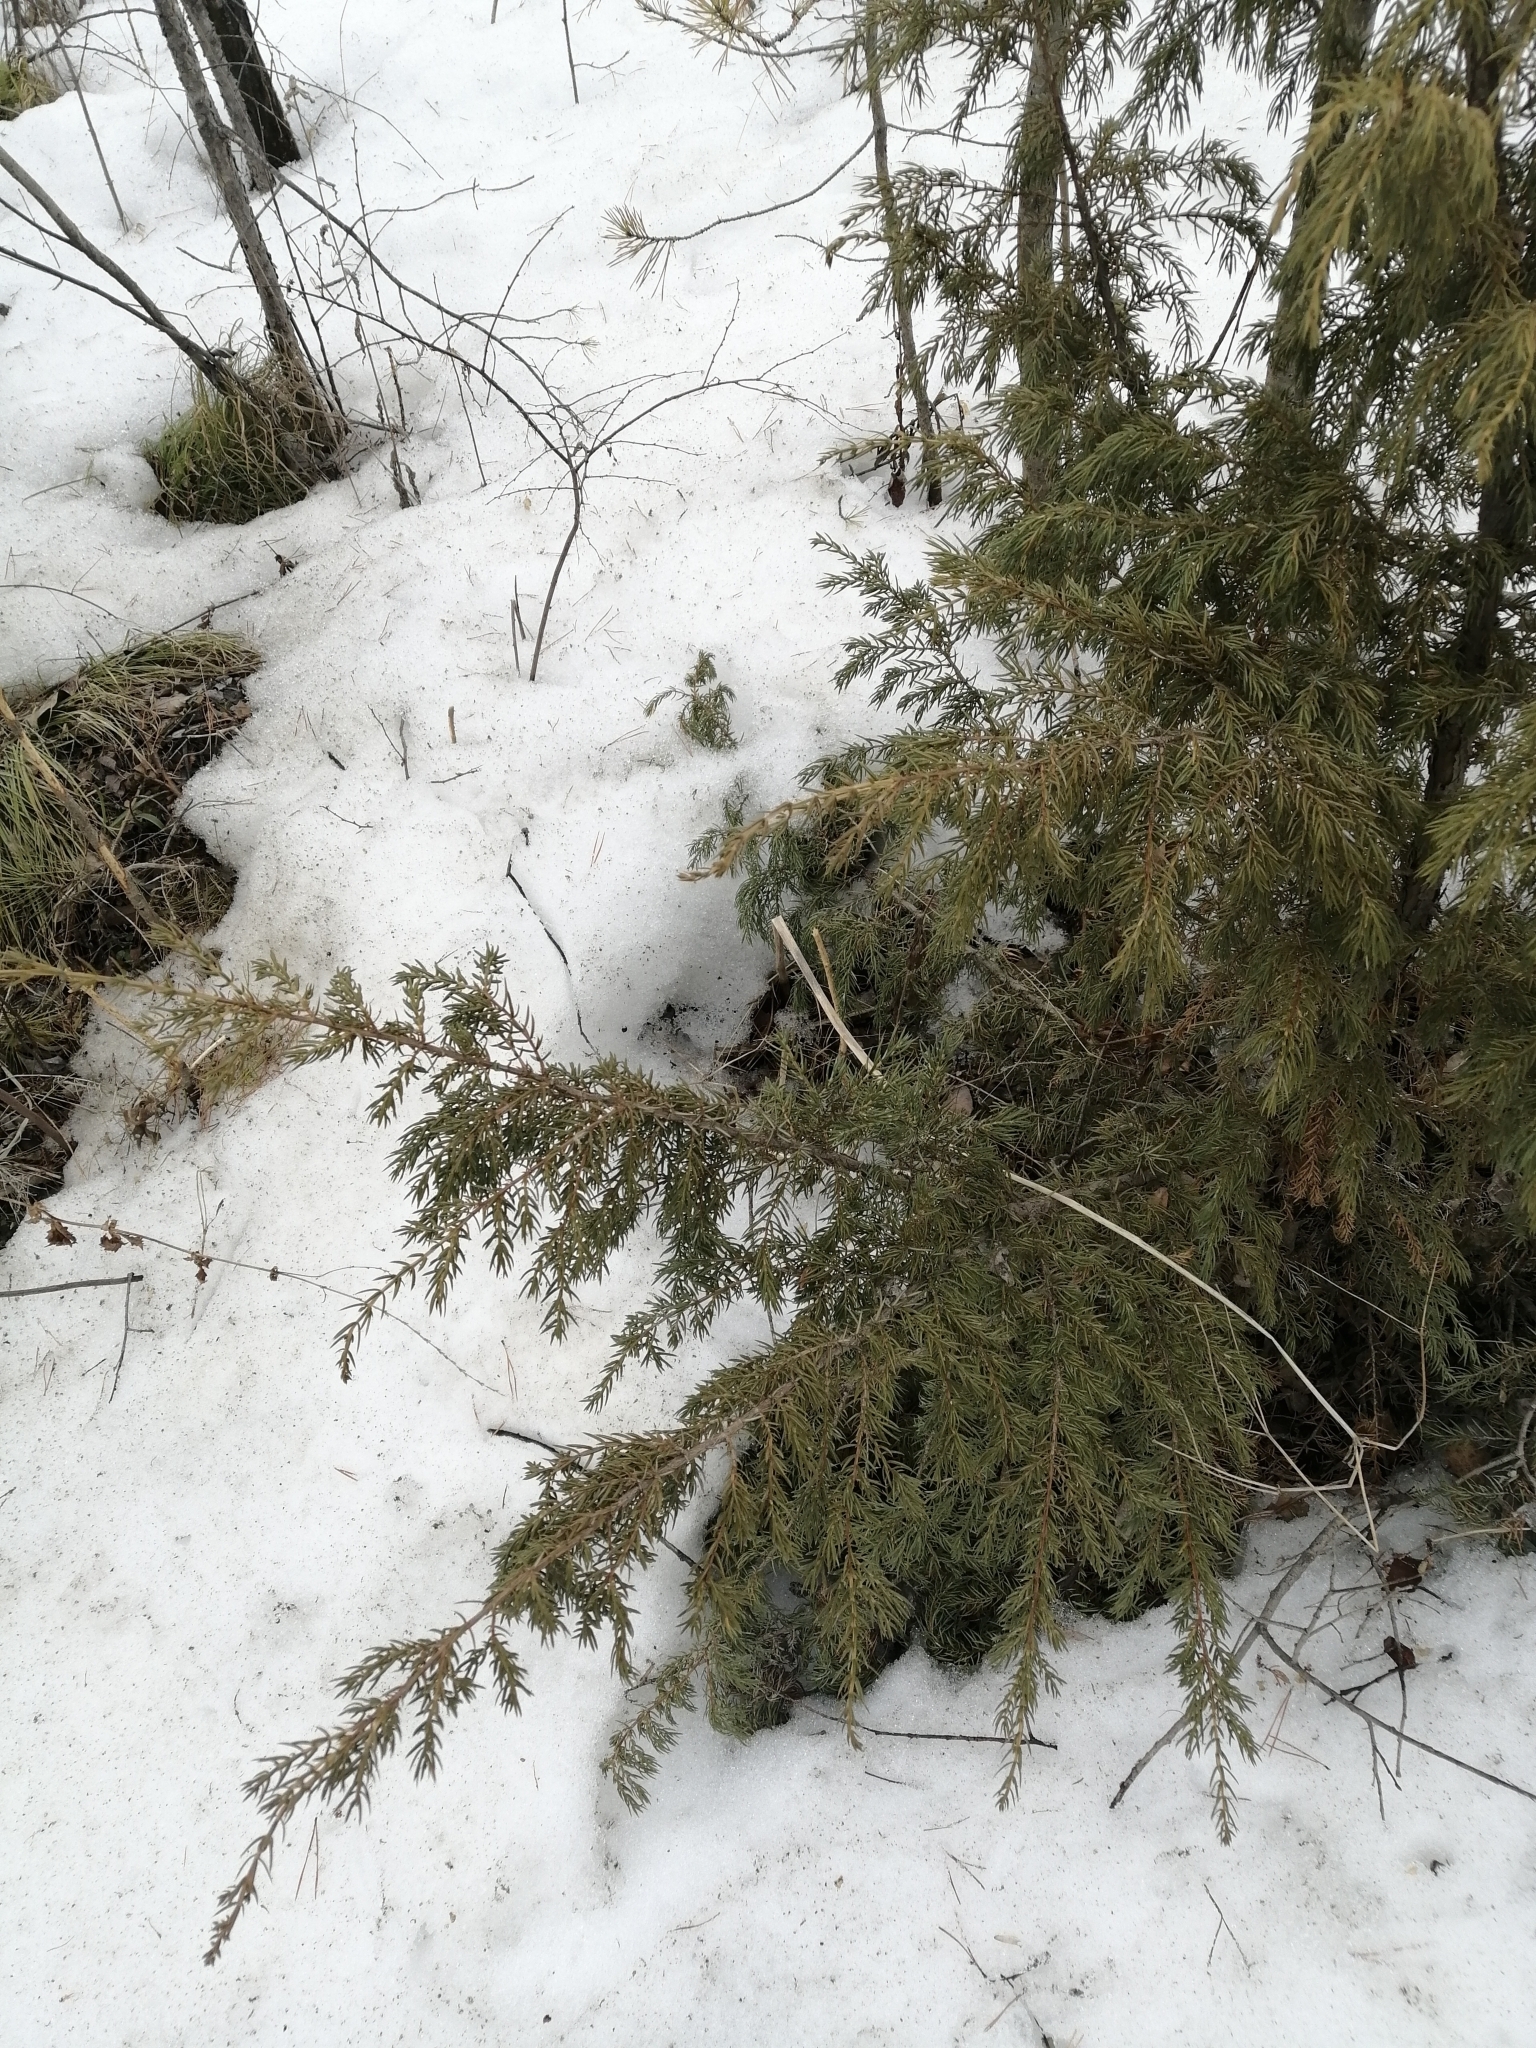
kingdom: Plantae
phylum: Tracheophyta
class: Pinopsida
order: Pinales
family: Cupressaceae
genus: Juniperus
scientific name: Juniperus communis
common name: Common juniper
